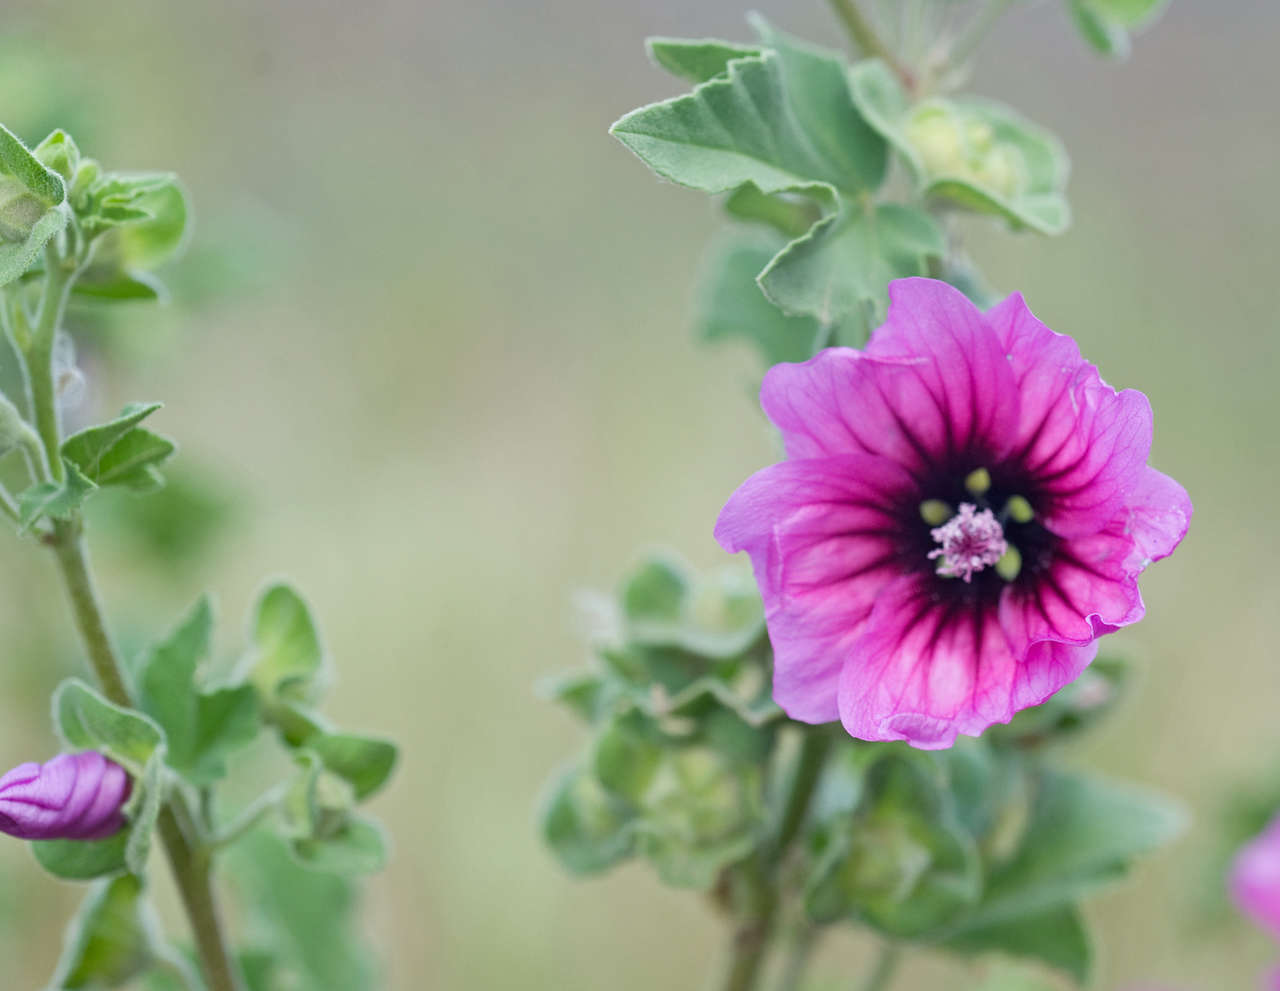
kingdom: Plantae
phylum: Tracheophyta
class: Magnoliopsida
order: Malvales
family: Malvaceae
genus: Malva
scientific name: Malva arborea
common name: Tree mallow
